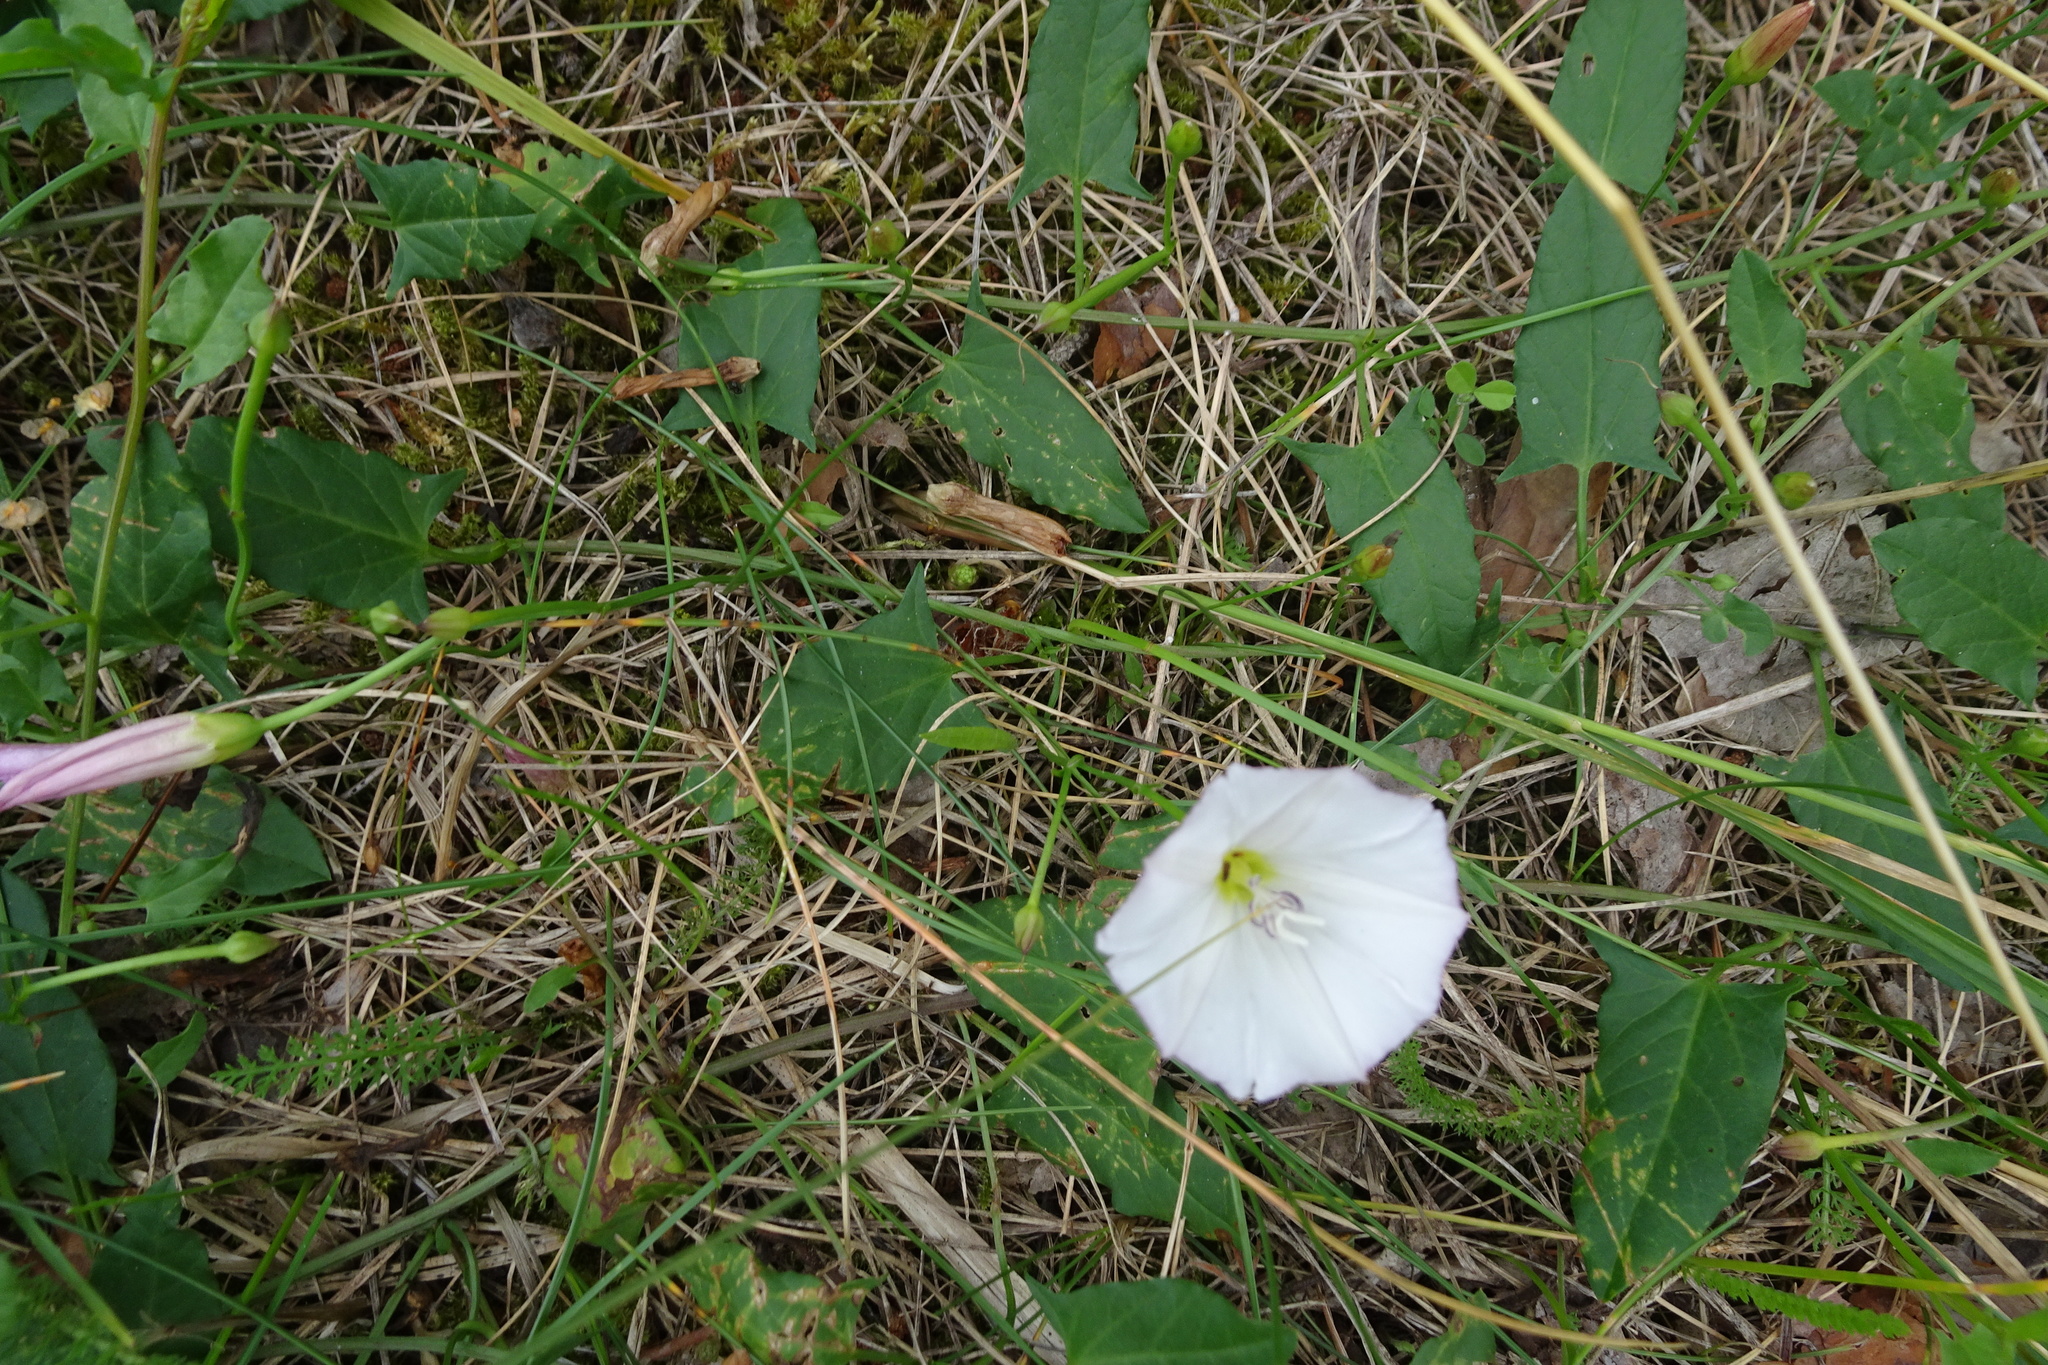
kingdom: Plantae
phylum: Tracheophyta
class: Magnoliopsida
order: Solanales
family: Convolvulaceae
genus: Convolvulus
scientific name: Convolvulus arvensis
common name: Field bindweed
